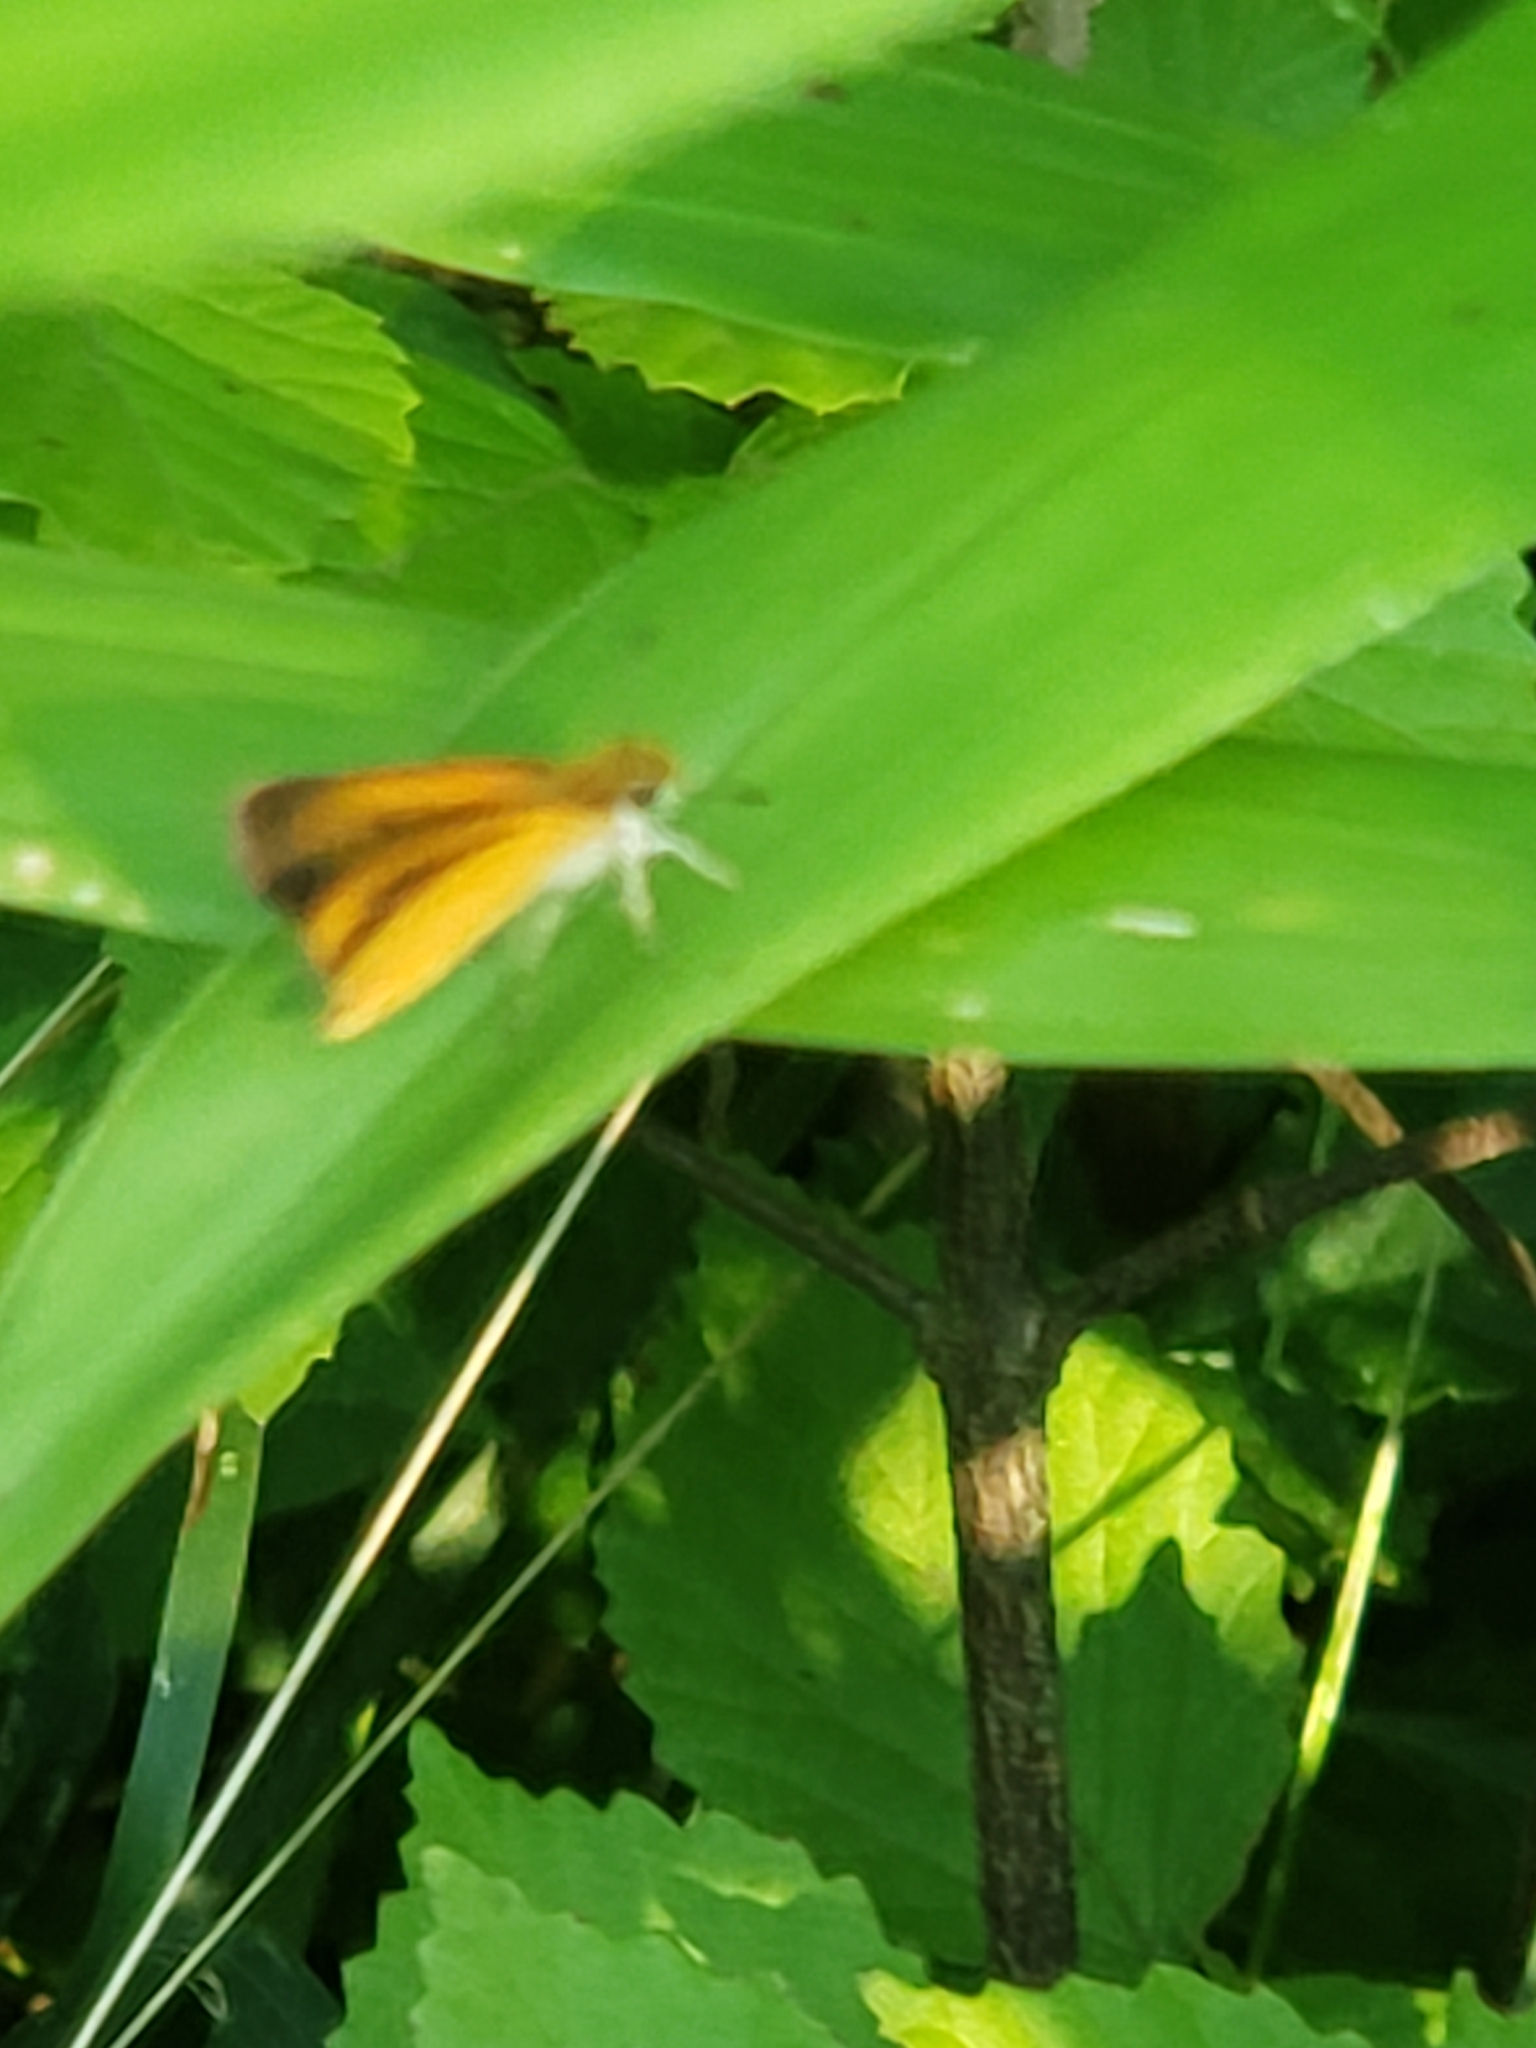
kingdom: Animalia
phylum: Arthropoda
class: Insecta
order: Lepidoptera
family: Hesperiidae
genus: Ancyloxypha
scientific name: Ancyloxypha numitor
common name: Least skipper
